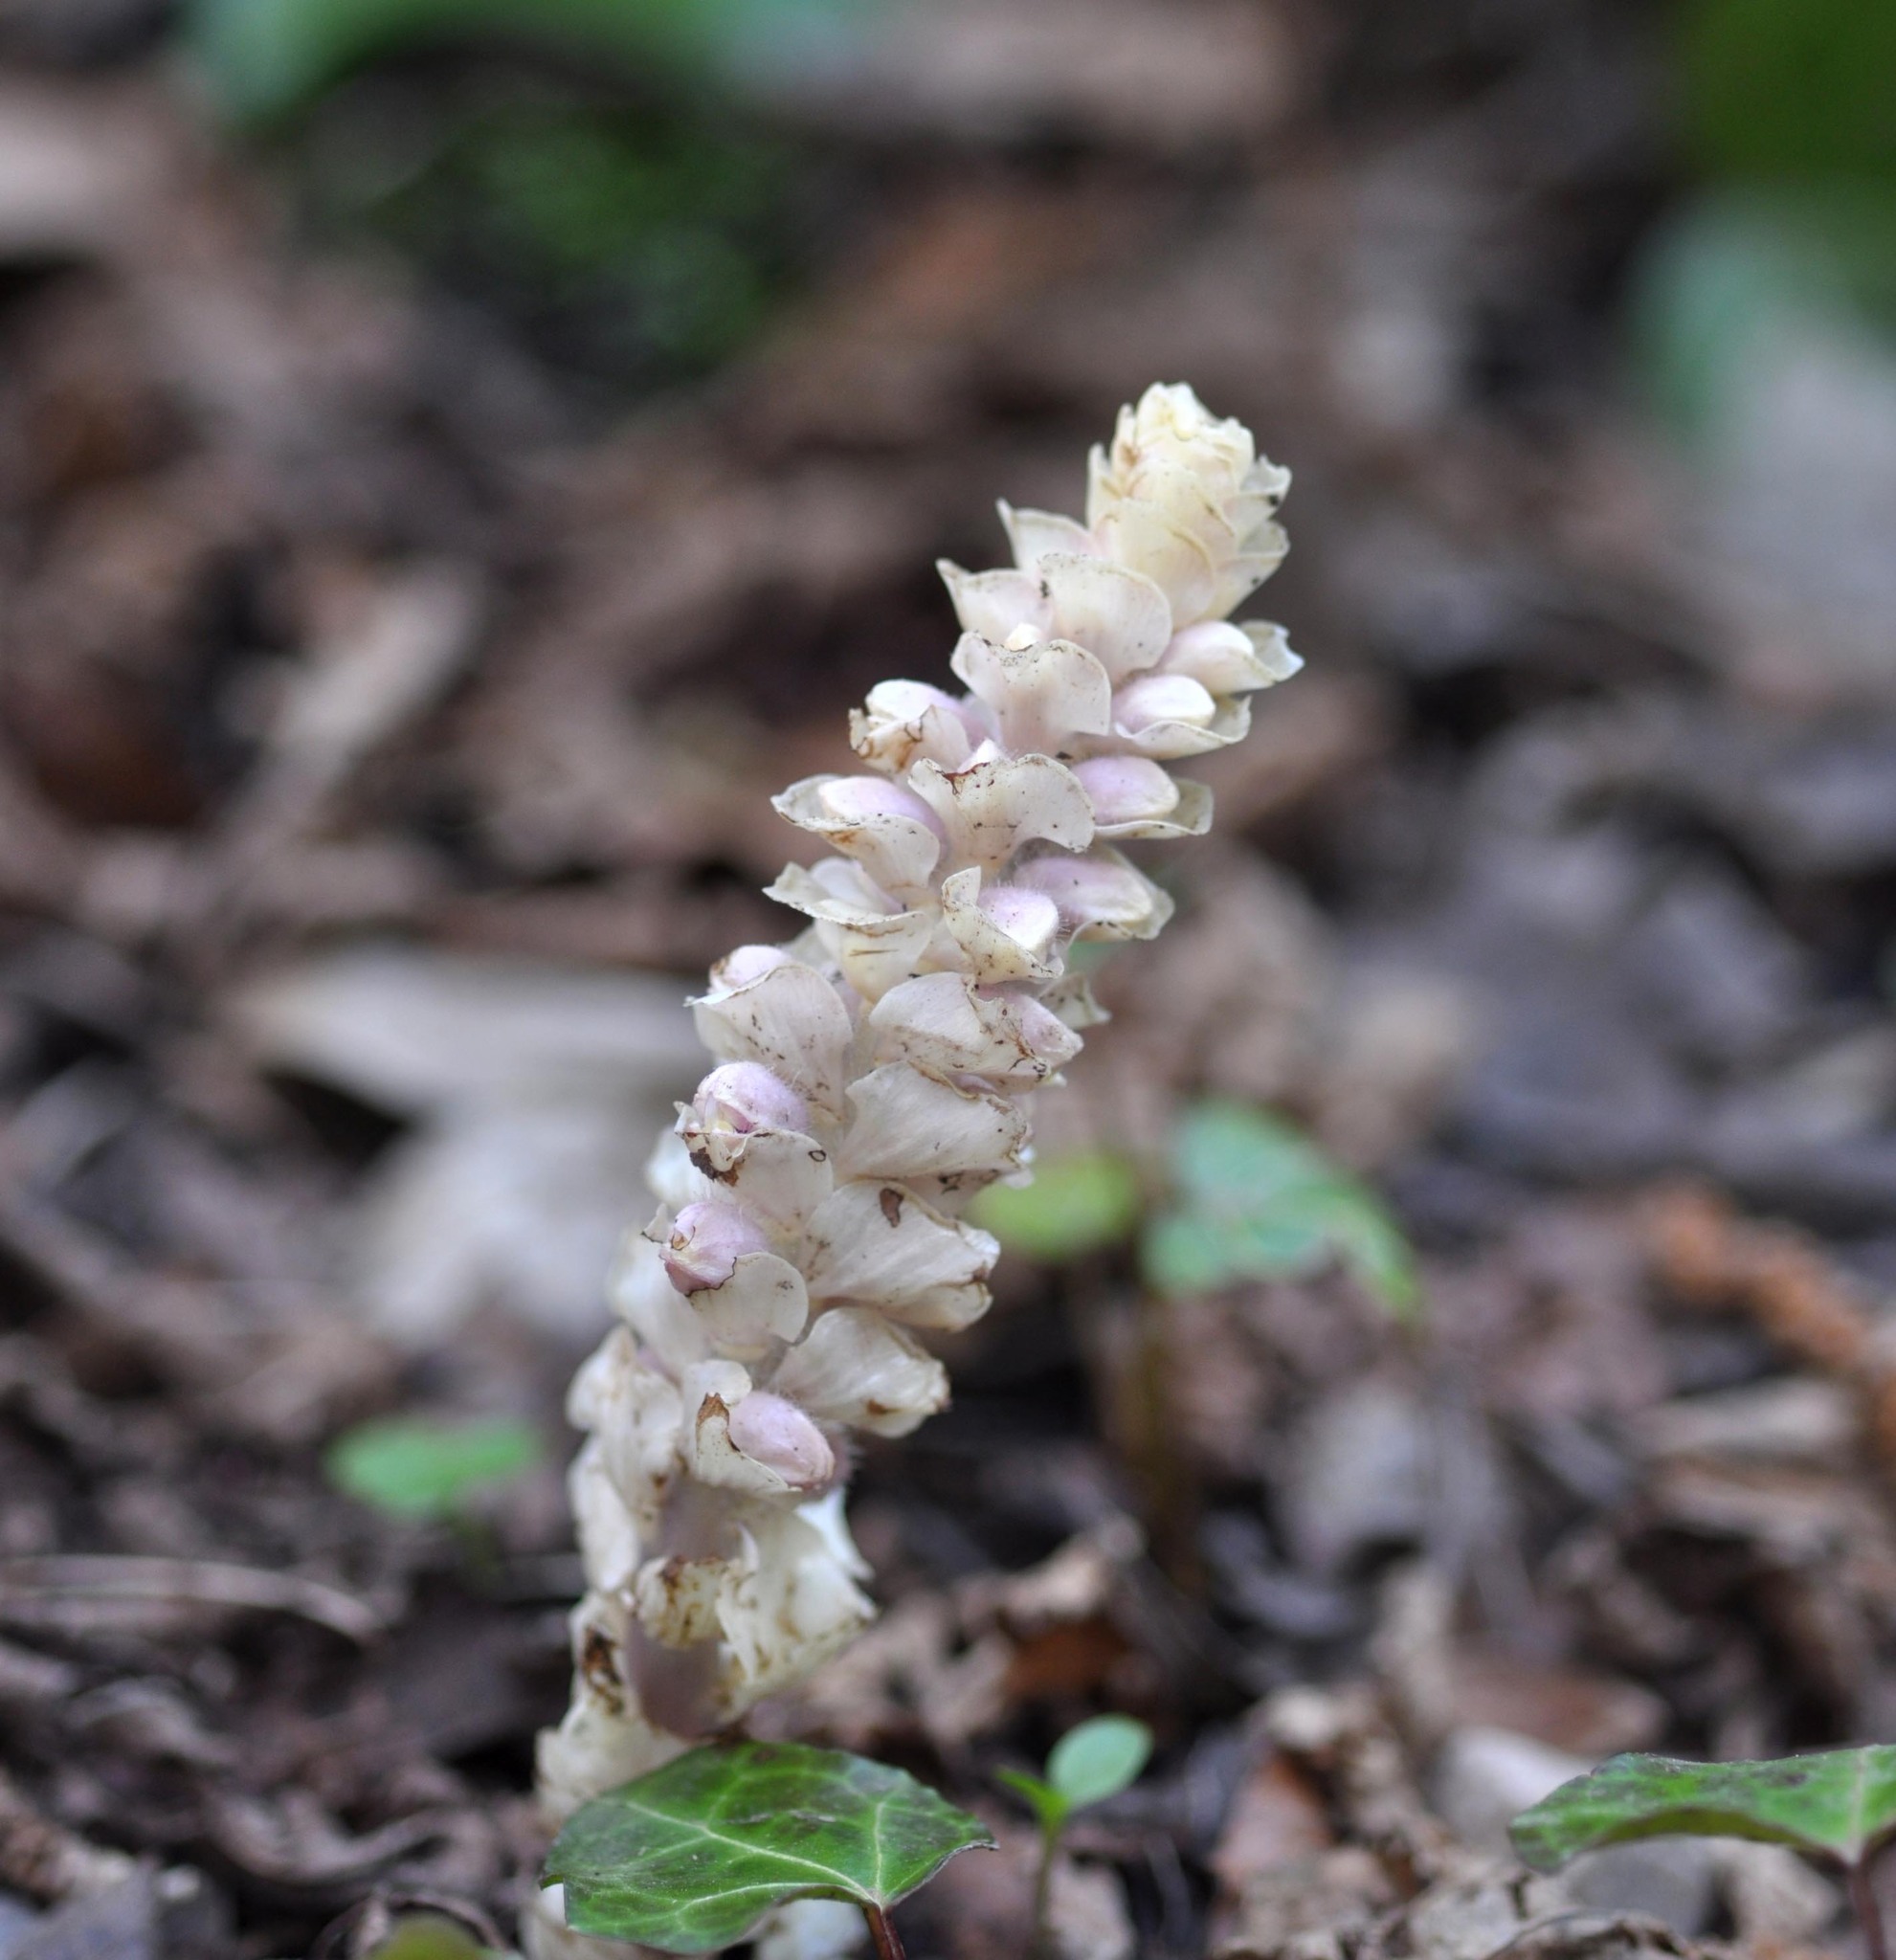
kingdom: Plantae
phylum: Tracheophyta
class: Magnoliopsida
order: Lamiales
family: Orobanchaceae
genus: Lathraea
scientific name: Lathraea squamaria
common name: Toothwort
